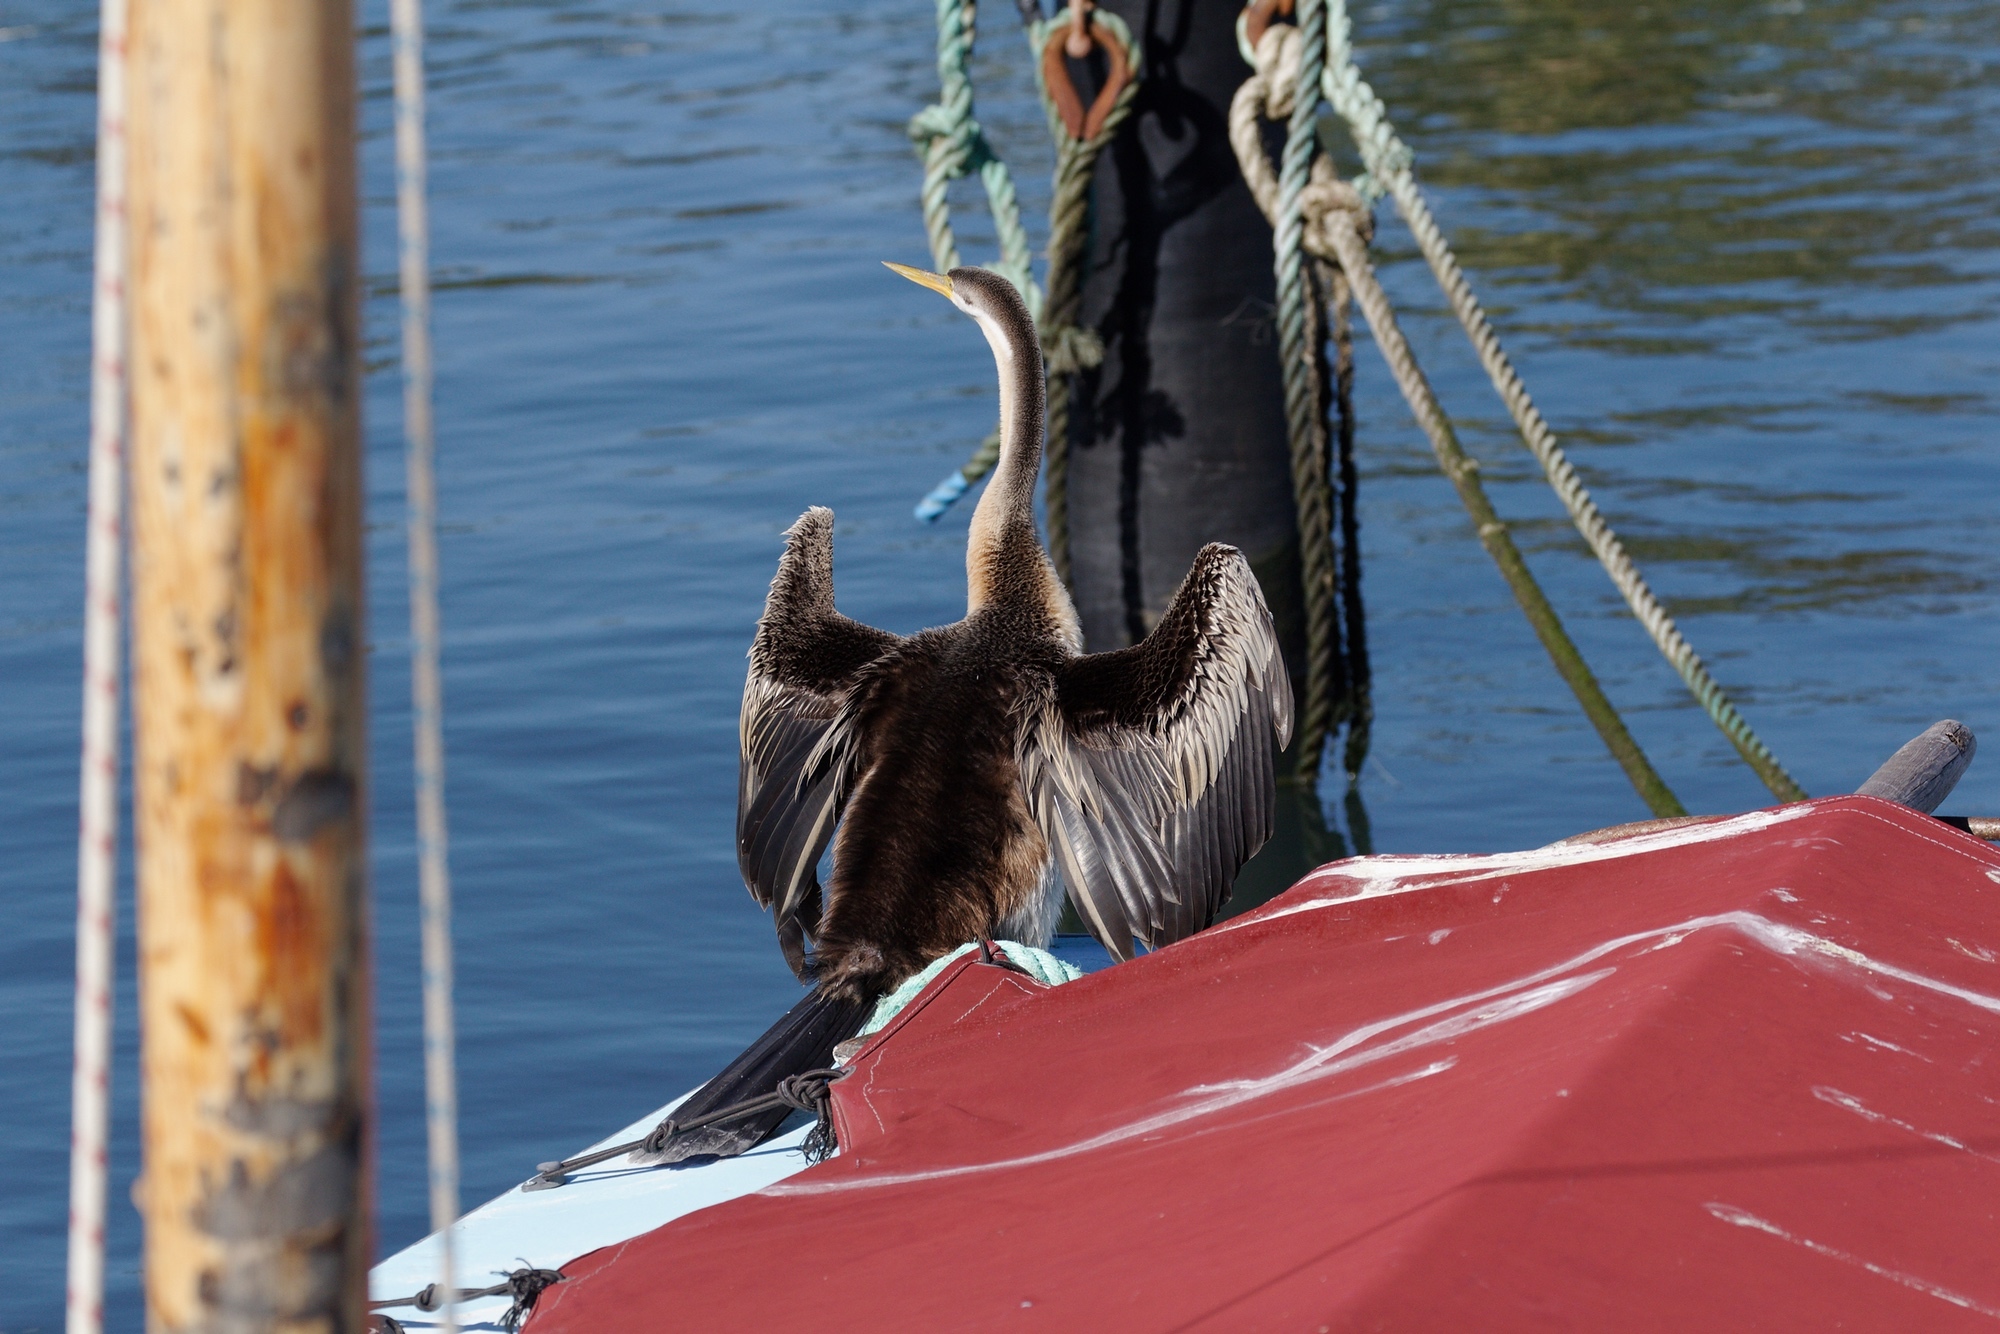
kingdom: Animalia
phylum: Chordata
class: Aves
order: Suliformes
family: Anhingidae
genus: Anhinga
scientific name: Anhinga novaehollandiae
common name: Australasian darter
